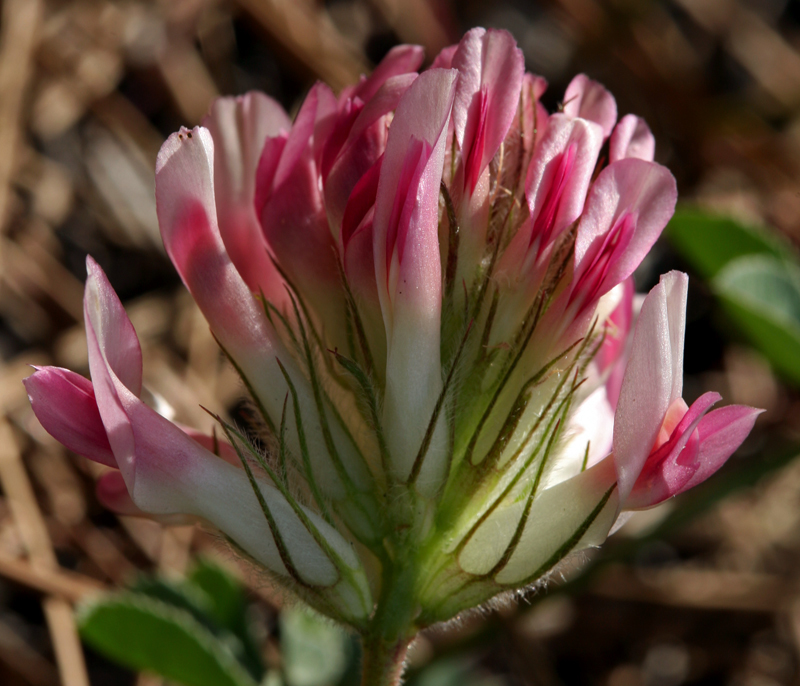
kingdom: Plantae
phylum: Tracheophyta
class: Magnoliopsida
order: Fabales
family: Fabaceae
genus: Trifolium
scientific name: Trifolium macrocephalum
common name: Large-head clover
